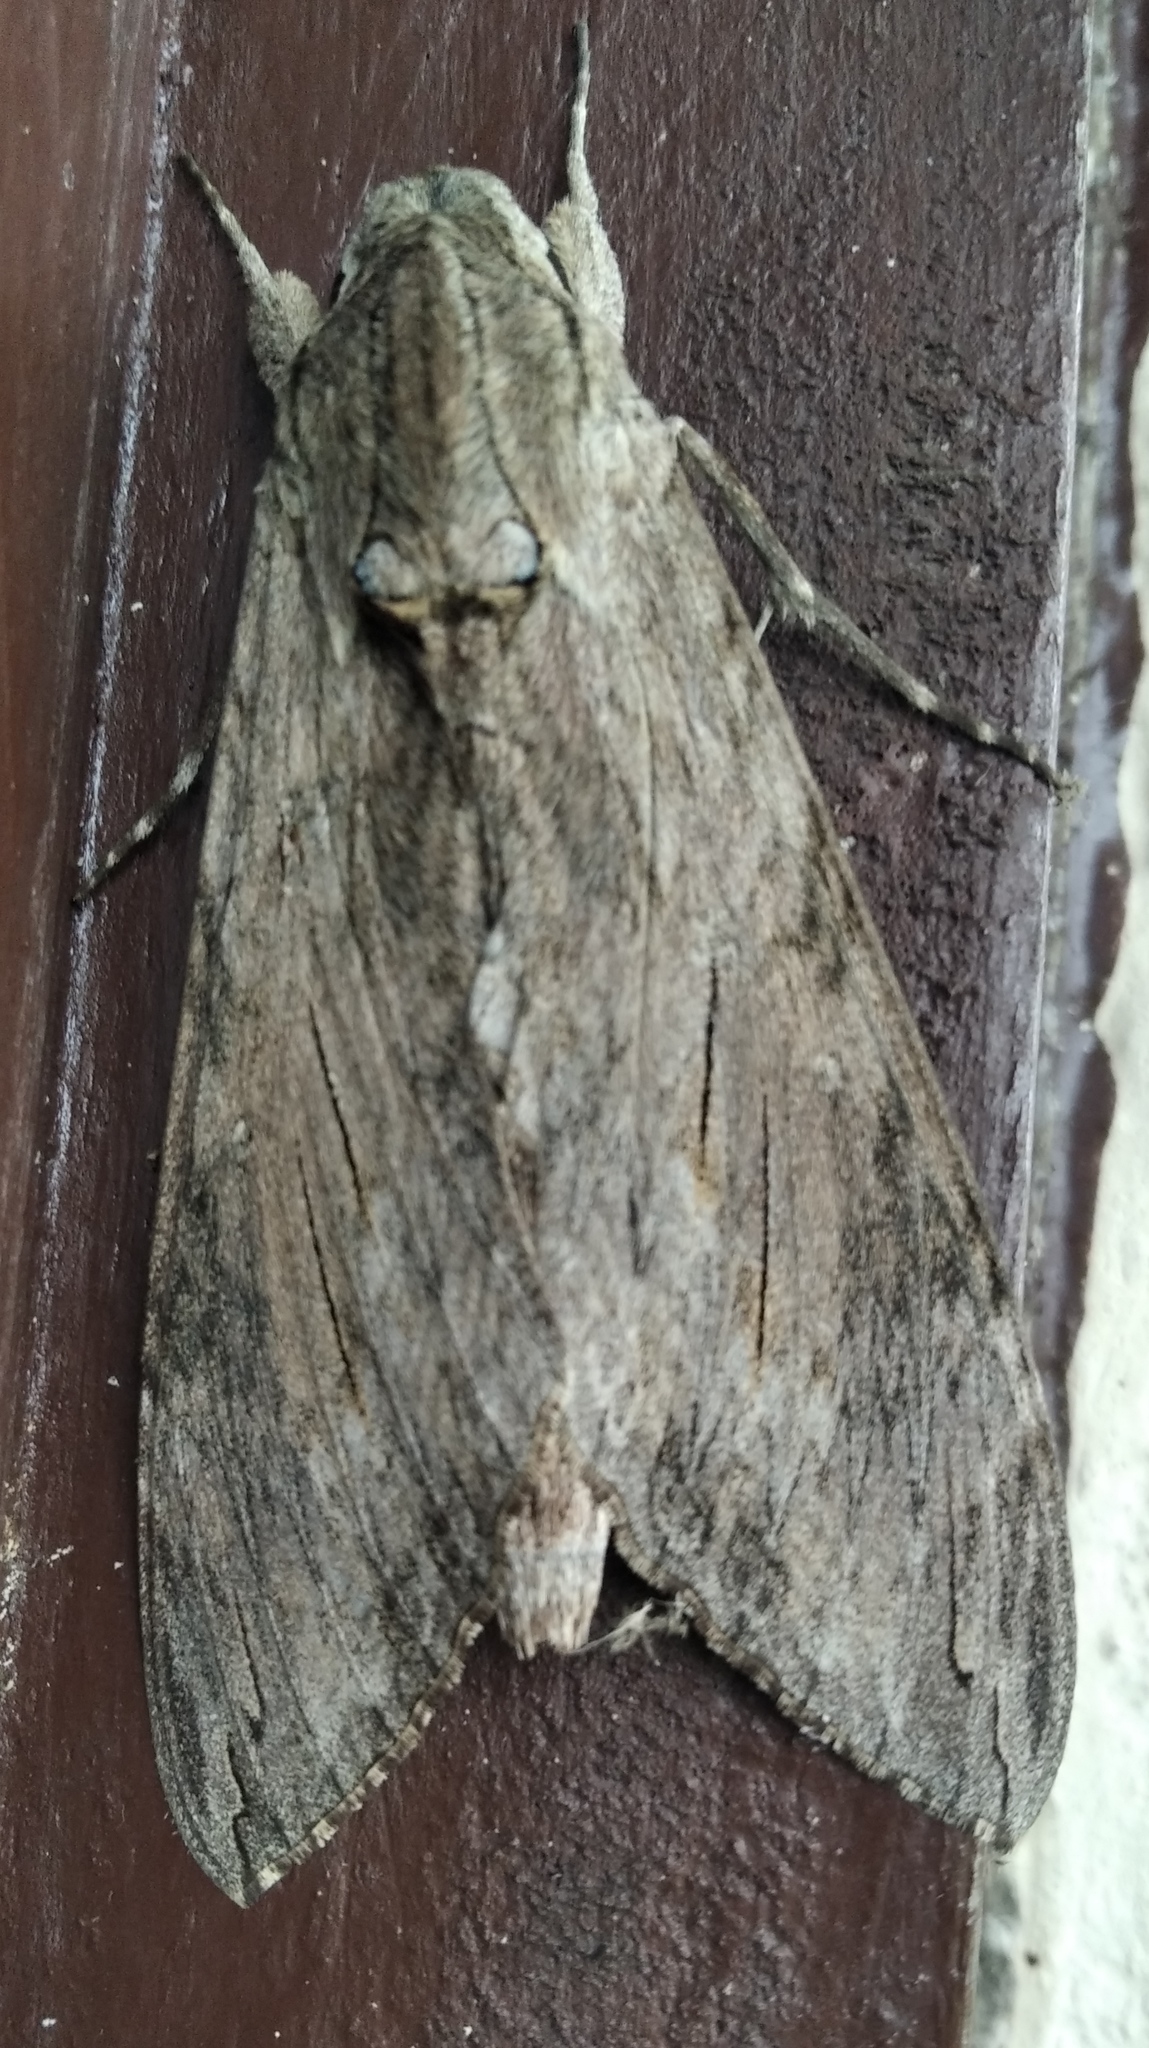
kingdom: Animalia
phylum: Arthropoda
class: Insecta
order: Lepidoptera
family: Sphingidae
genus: Agrius
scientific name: Agrius convolvuli
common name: Convolvulus hawkmoth
